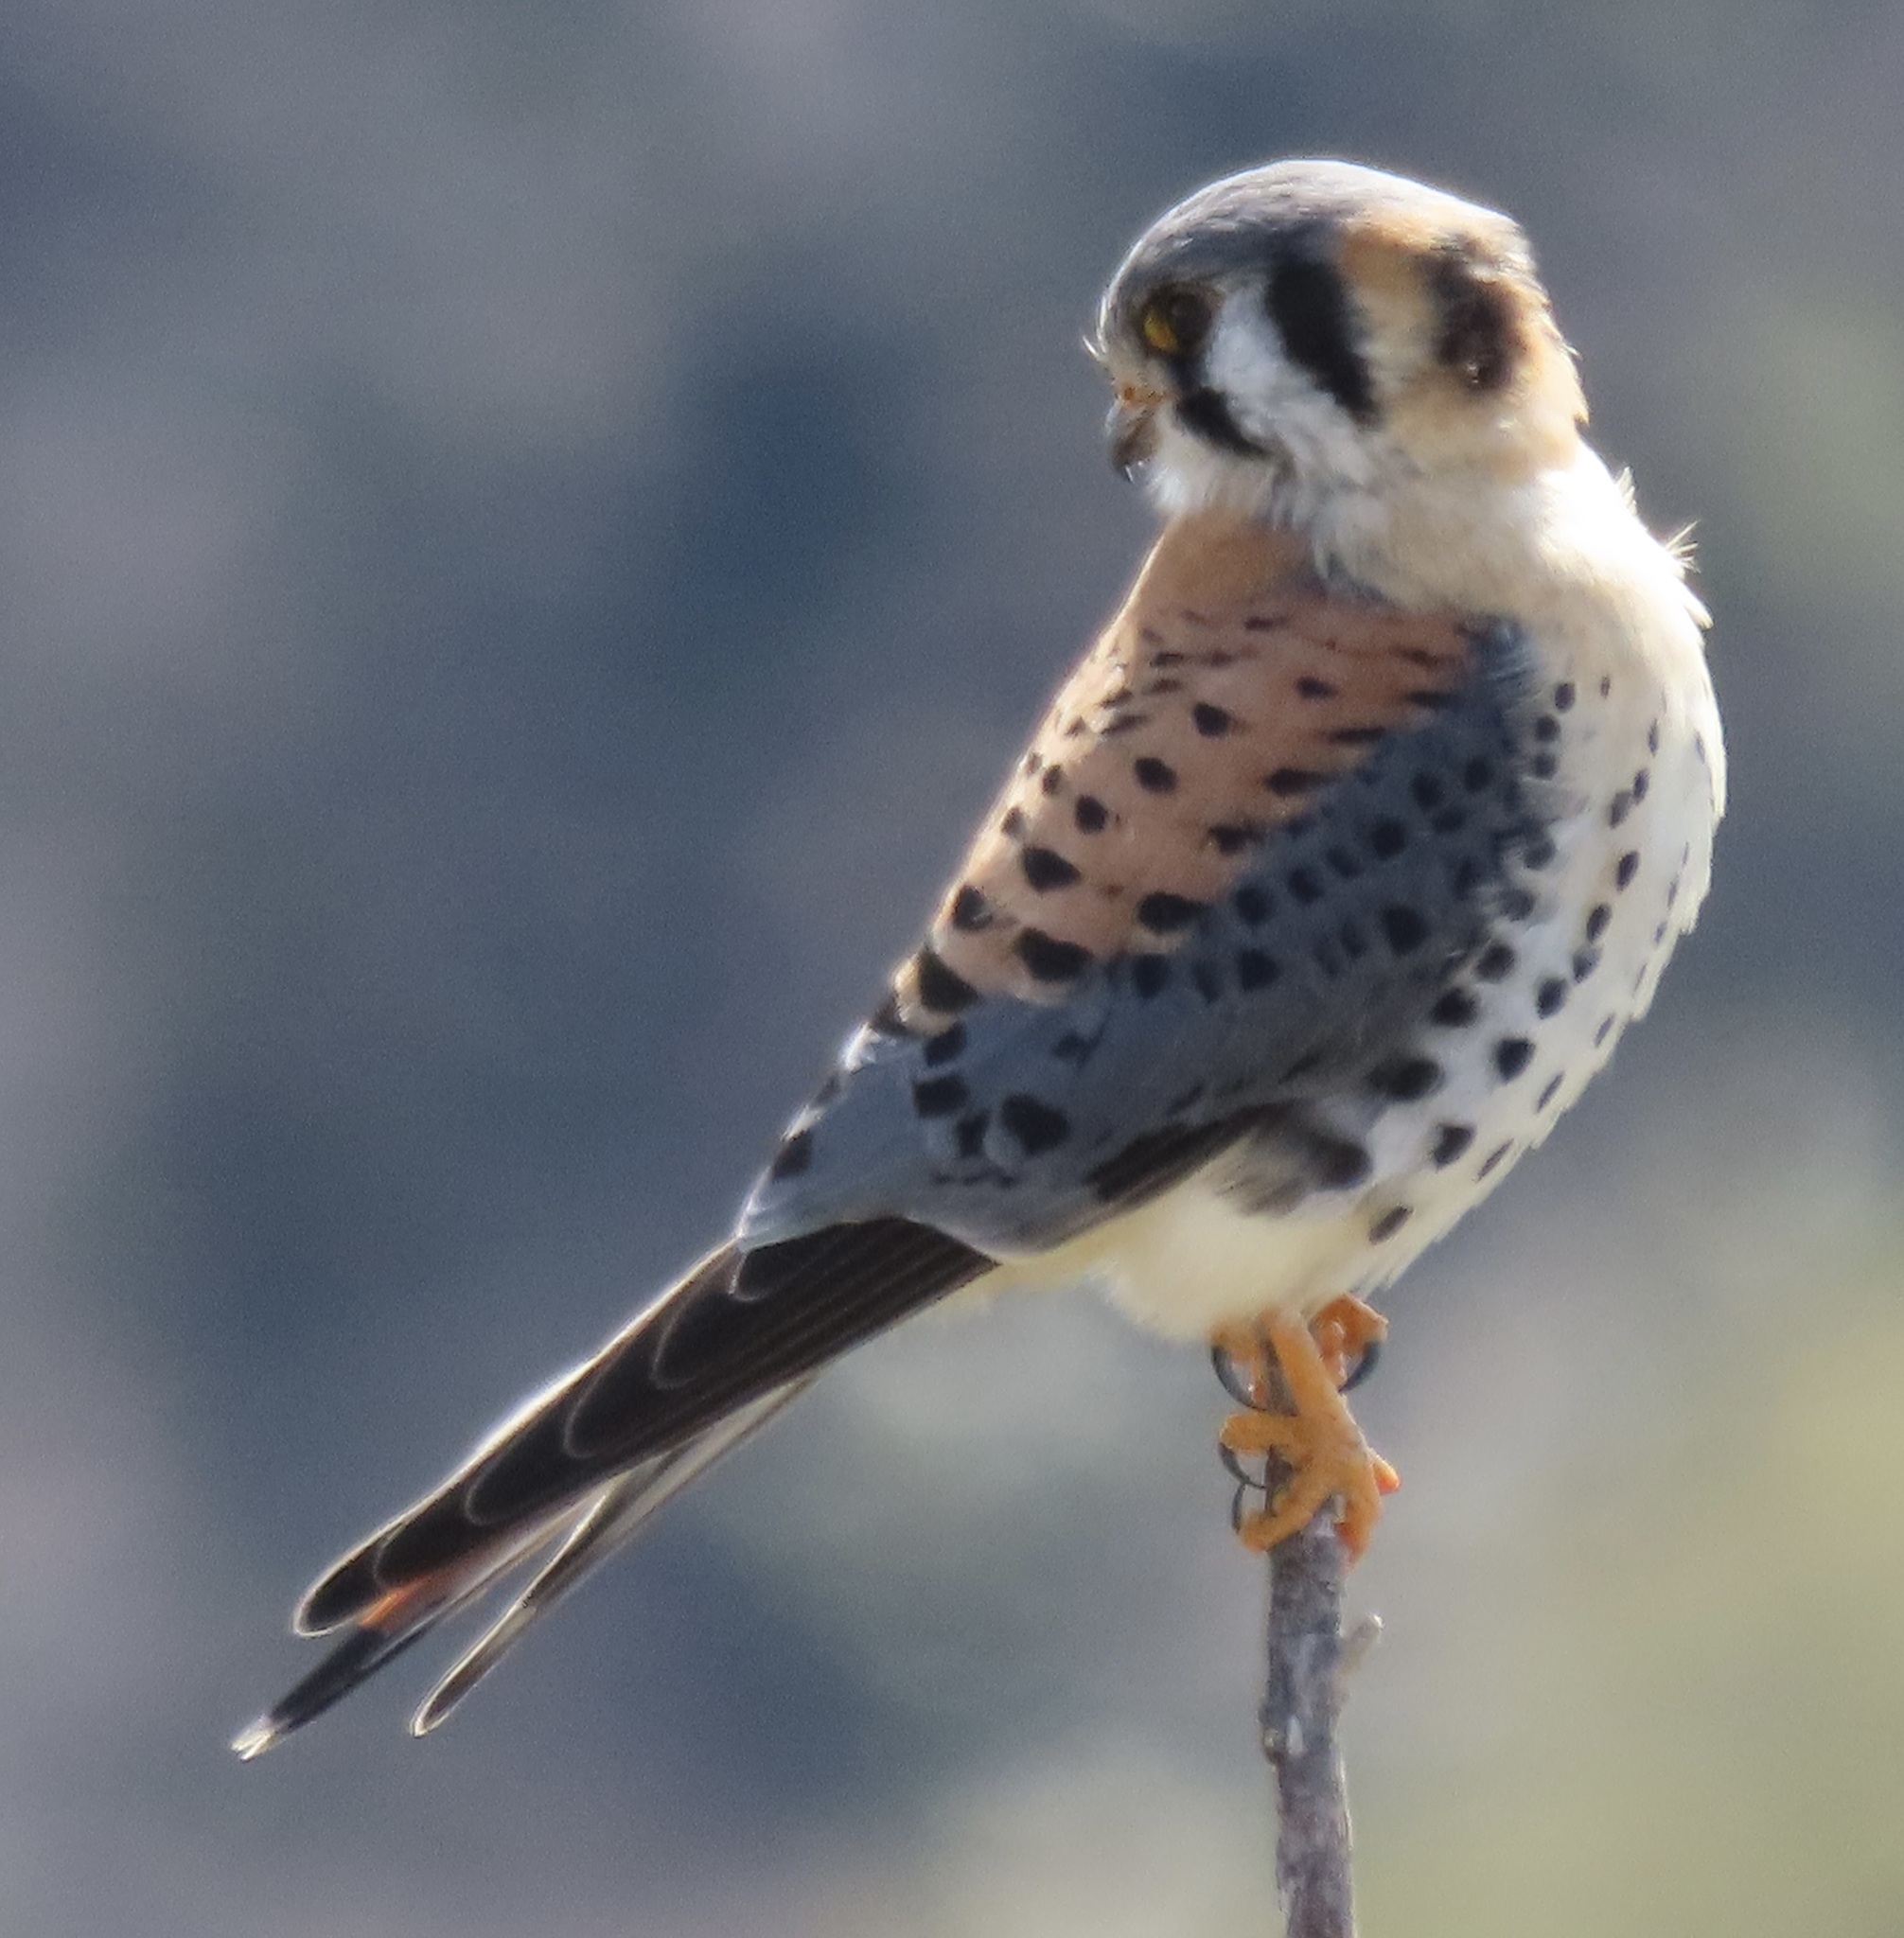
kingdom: Animalia
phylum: Chordata
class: Aves
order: Falconiformes
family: Falconidae
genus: Falco
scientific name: Falco sparverius
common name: American kestrel
